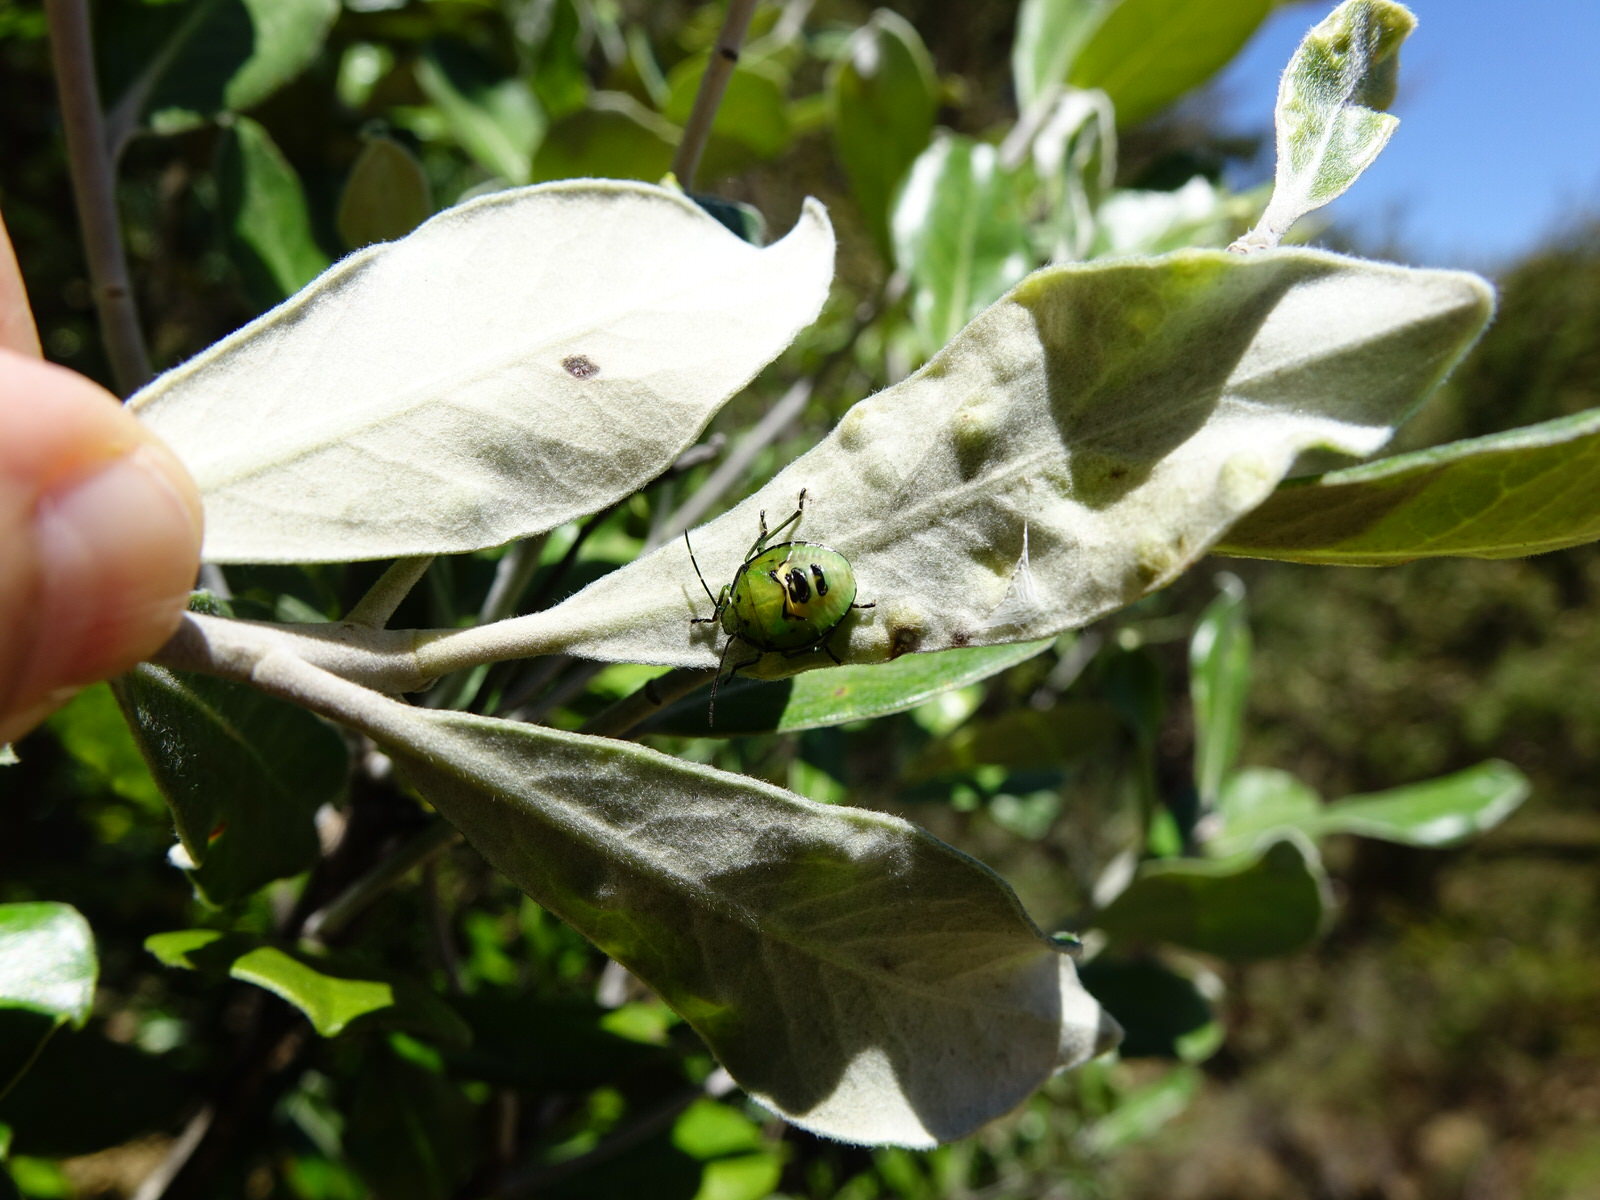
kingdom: Animalia
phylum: Arthropoda
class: Insecta
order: Hemiptera
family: Pentatomidae
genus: Glaucias
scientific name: Glaucias amyota
